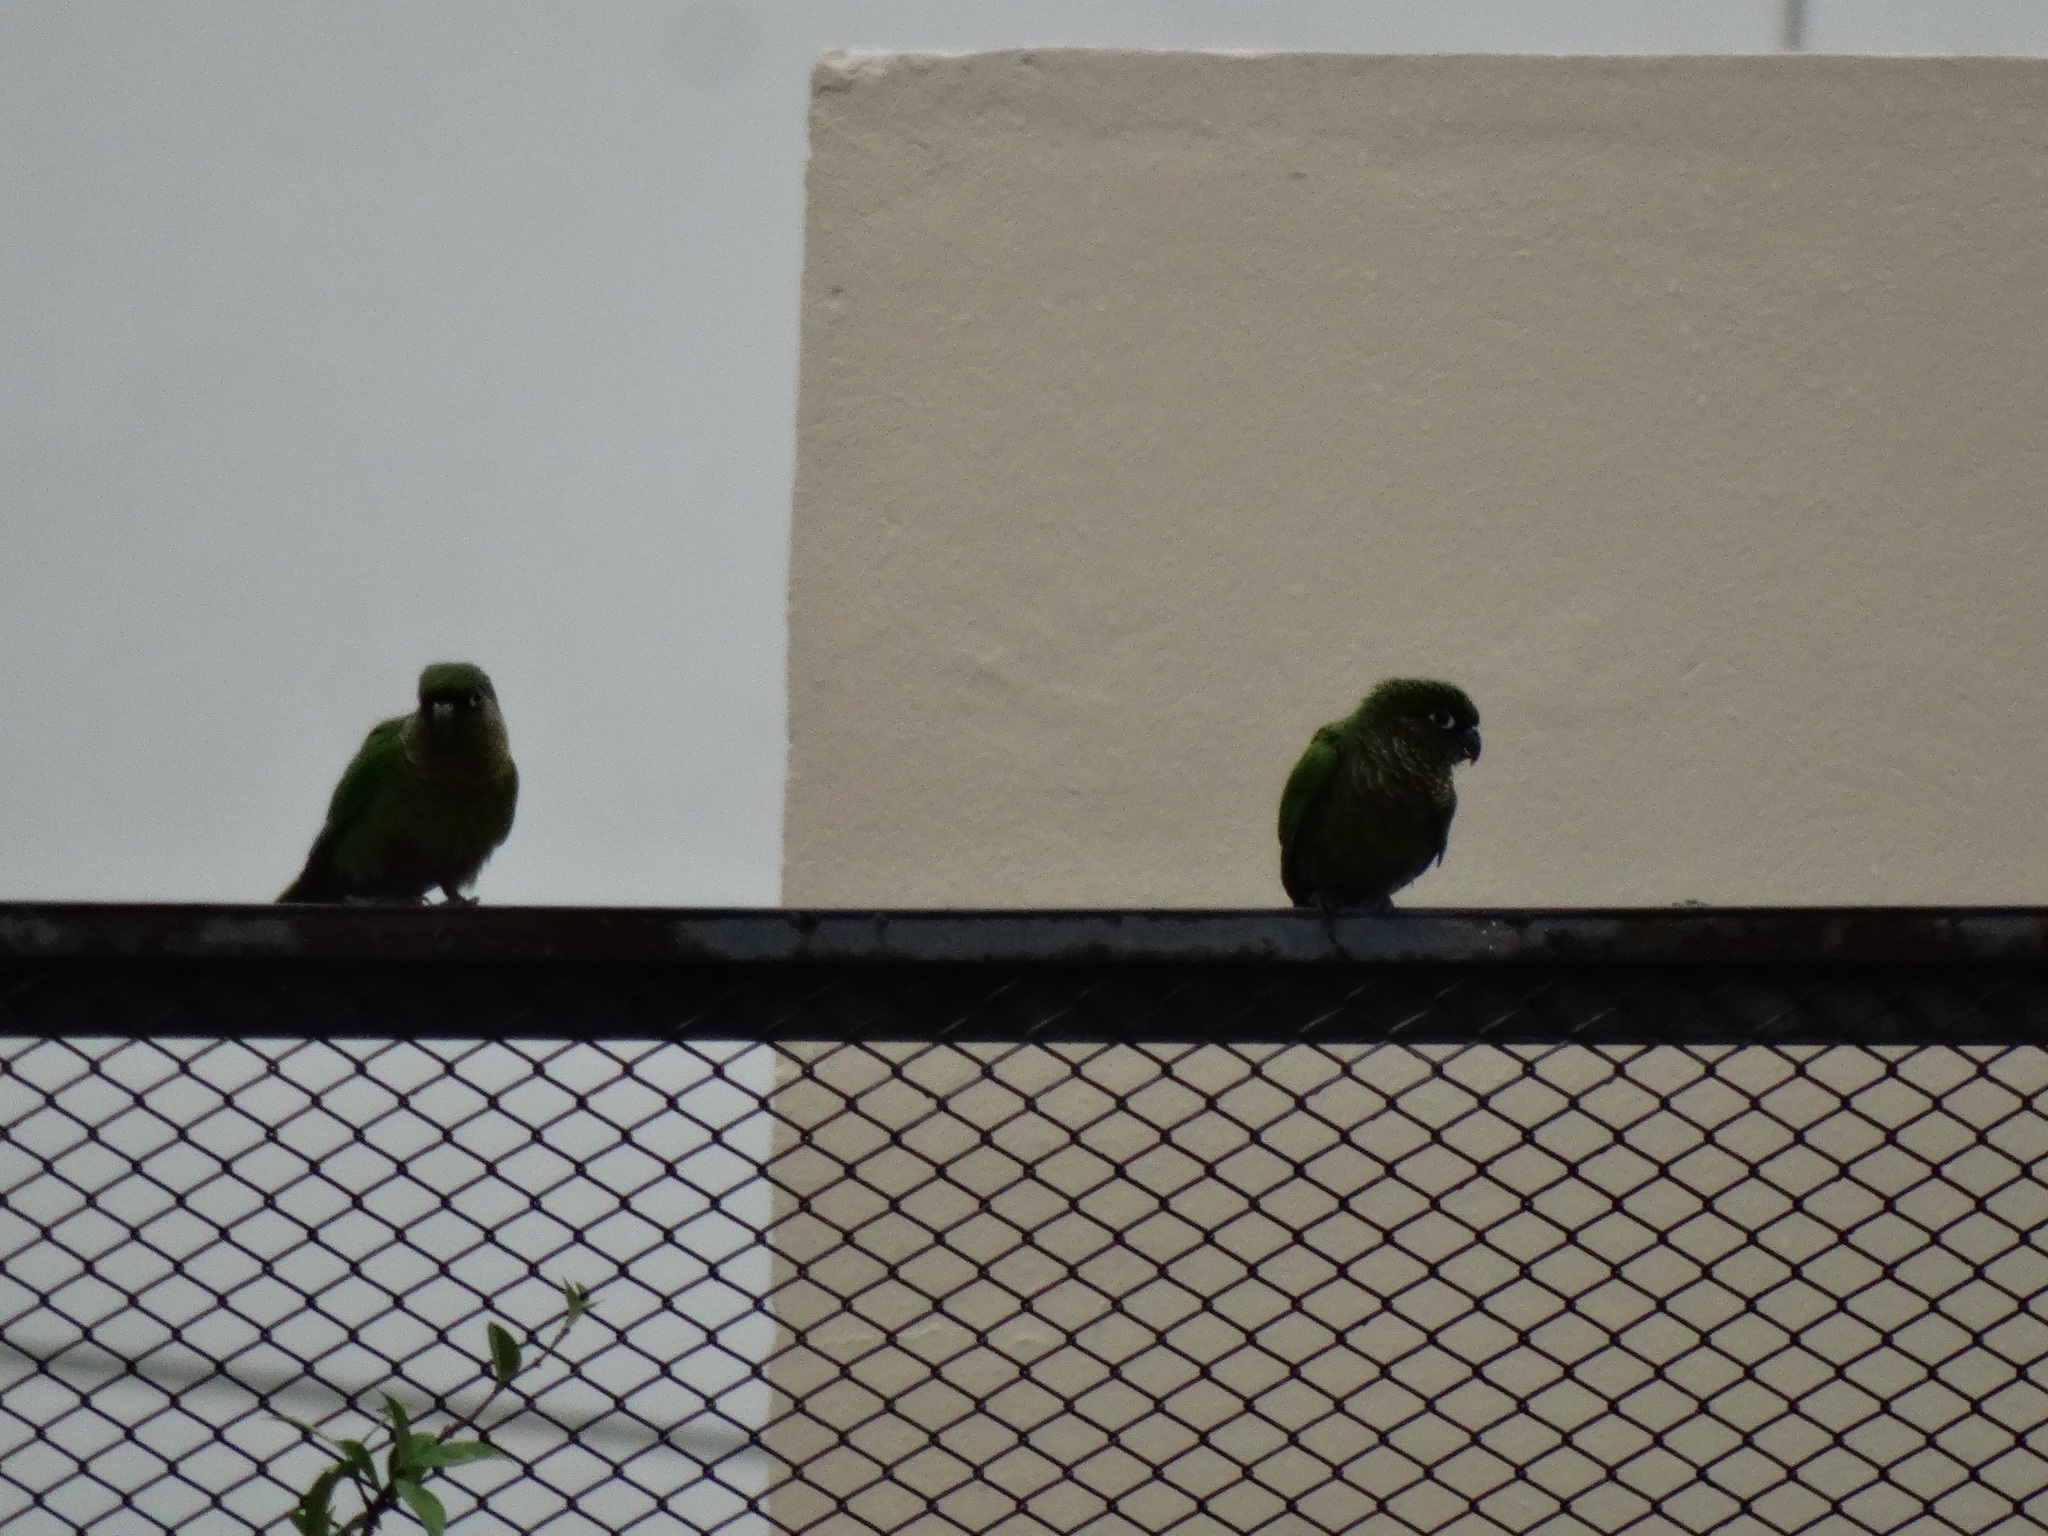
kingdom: Animalia
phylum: Chordata
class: Aves
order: Psittaciformes
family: Psittacidae
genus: Pyrrhura
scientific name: Pyrrhura frontalis
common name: Maroon-bellied parakeet
